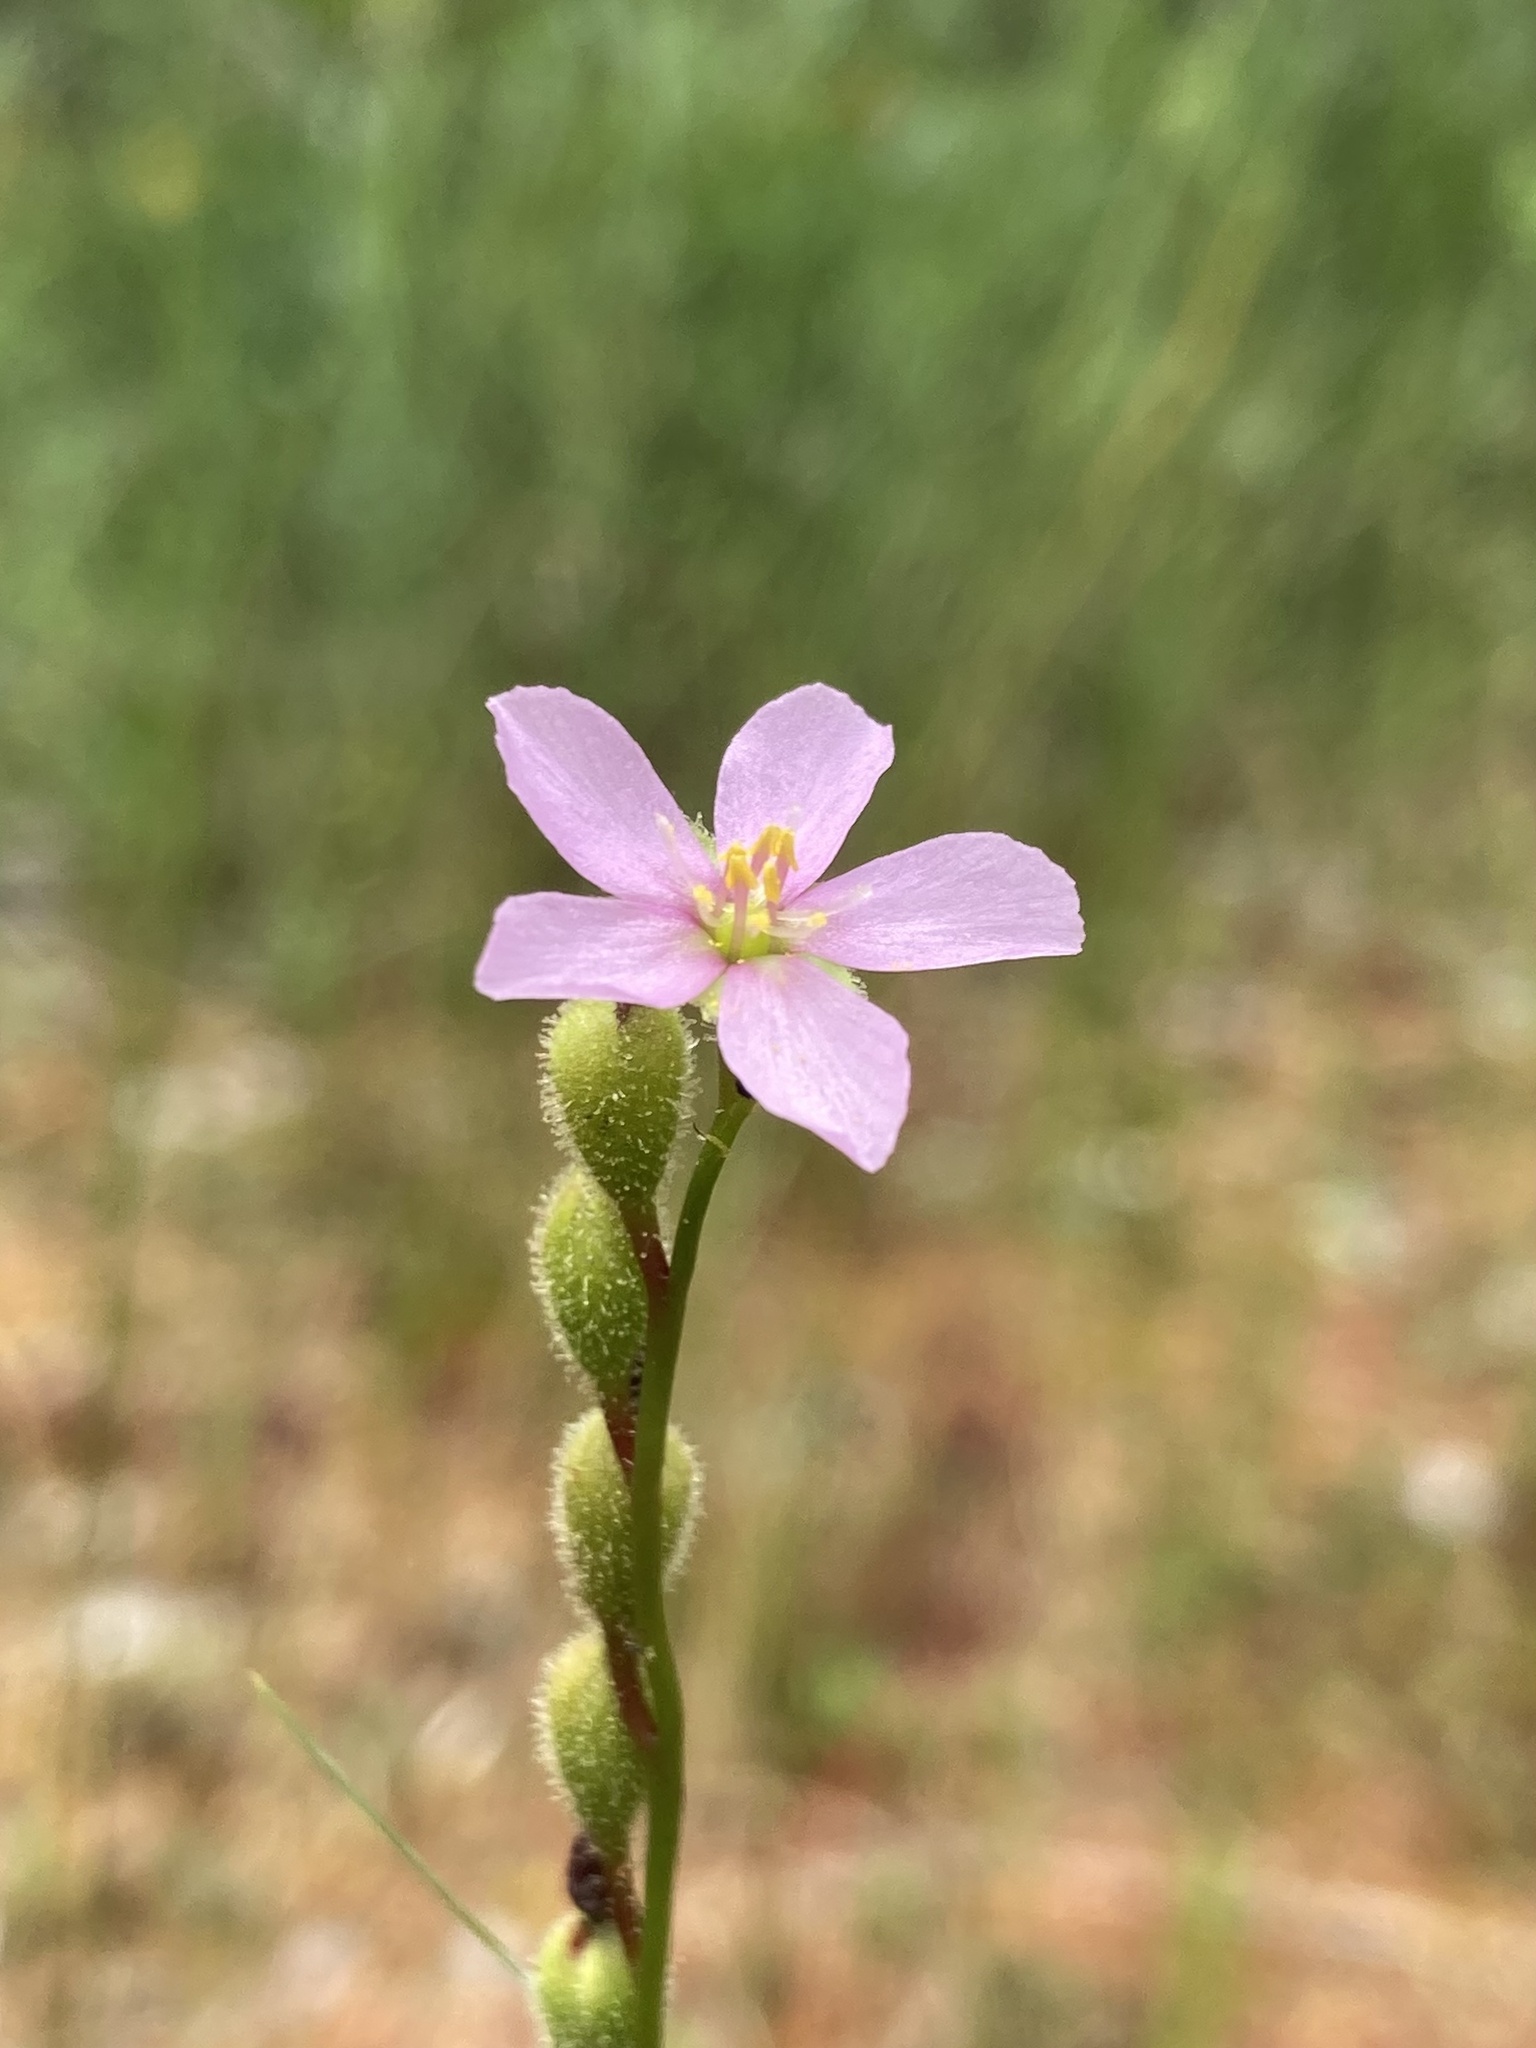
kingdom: Plantae
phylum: Tracheophyta
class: Magnoliopsida
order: Caryophyllales
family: Droseraceae
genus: Drosera
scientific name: Drosera filiformis
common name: Dew-thread
